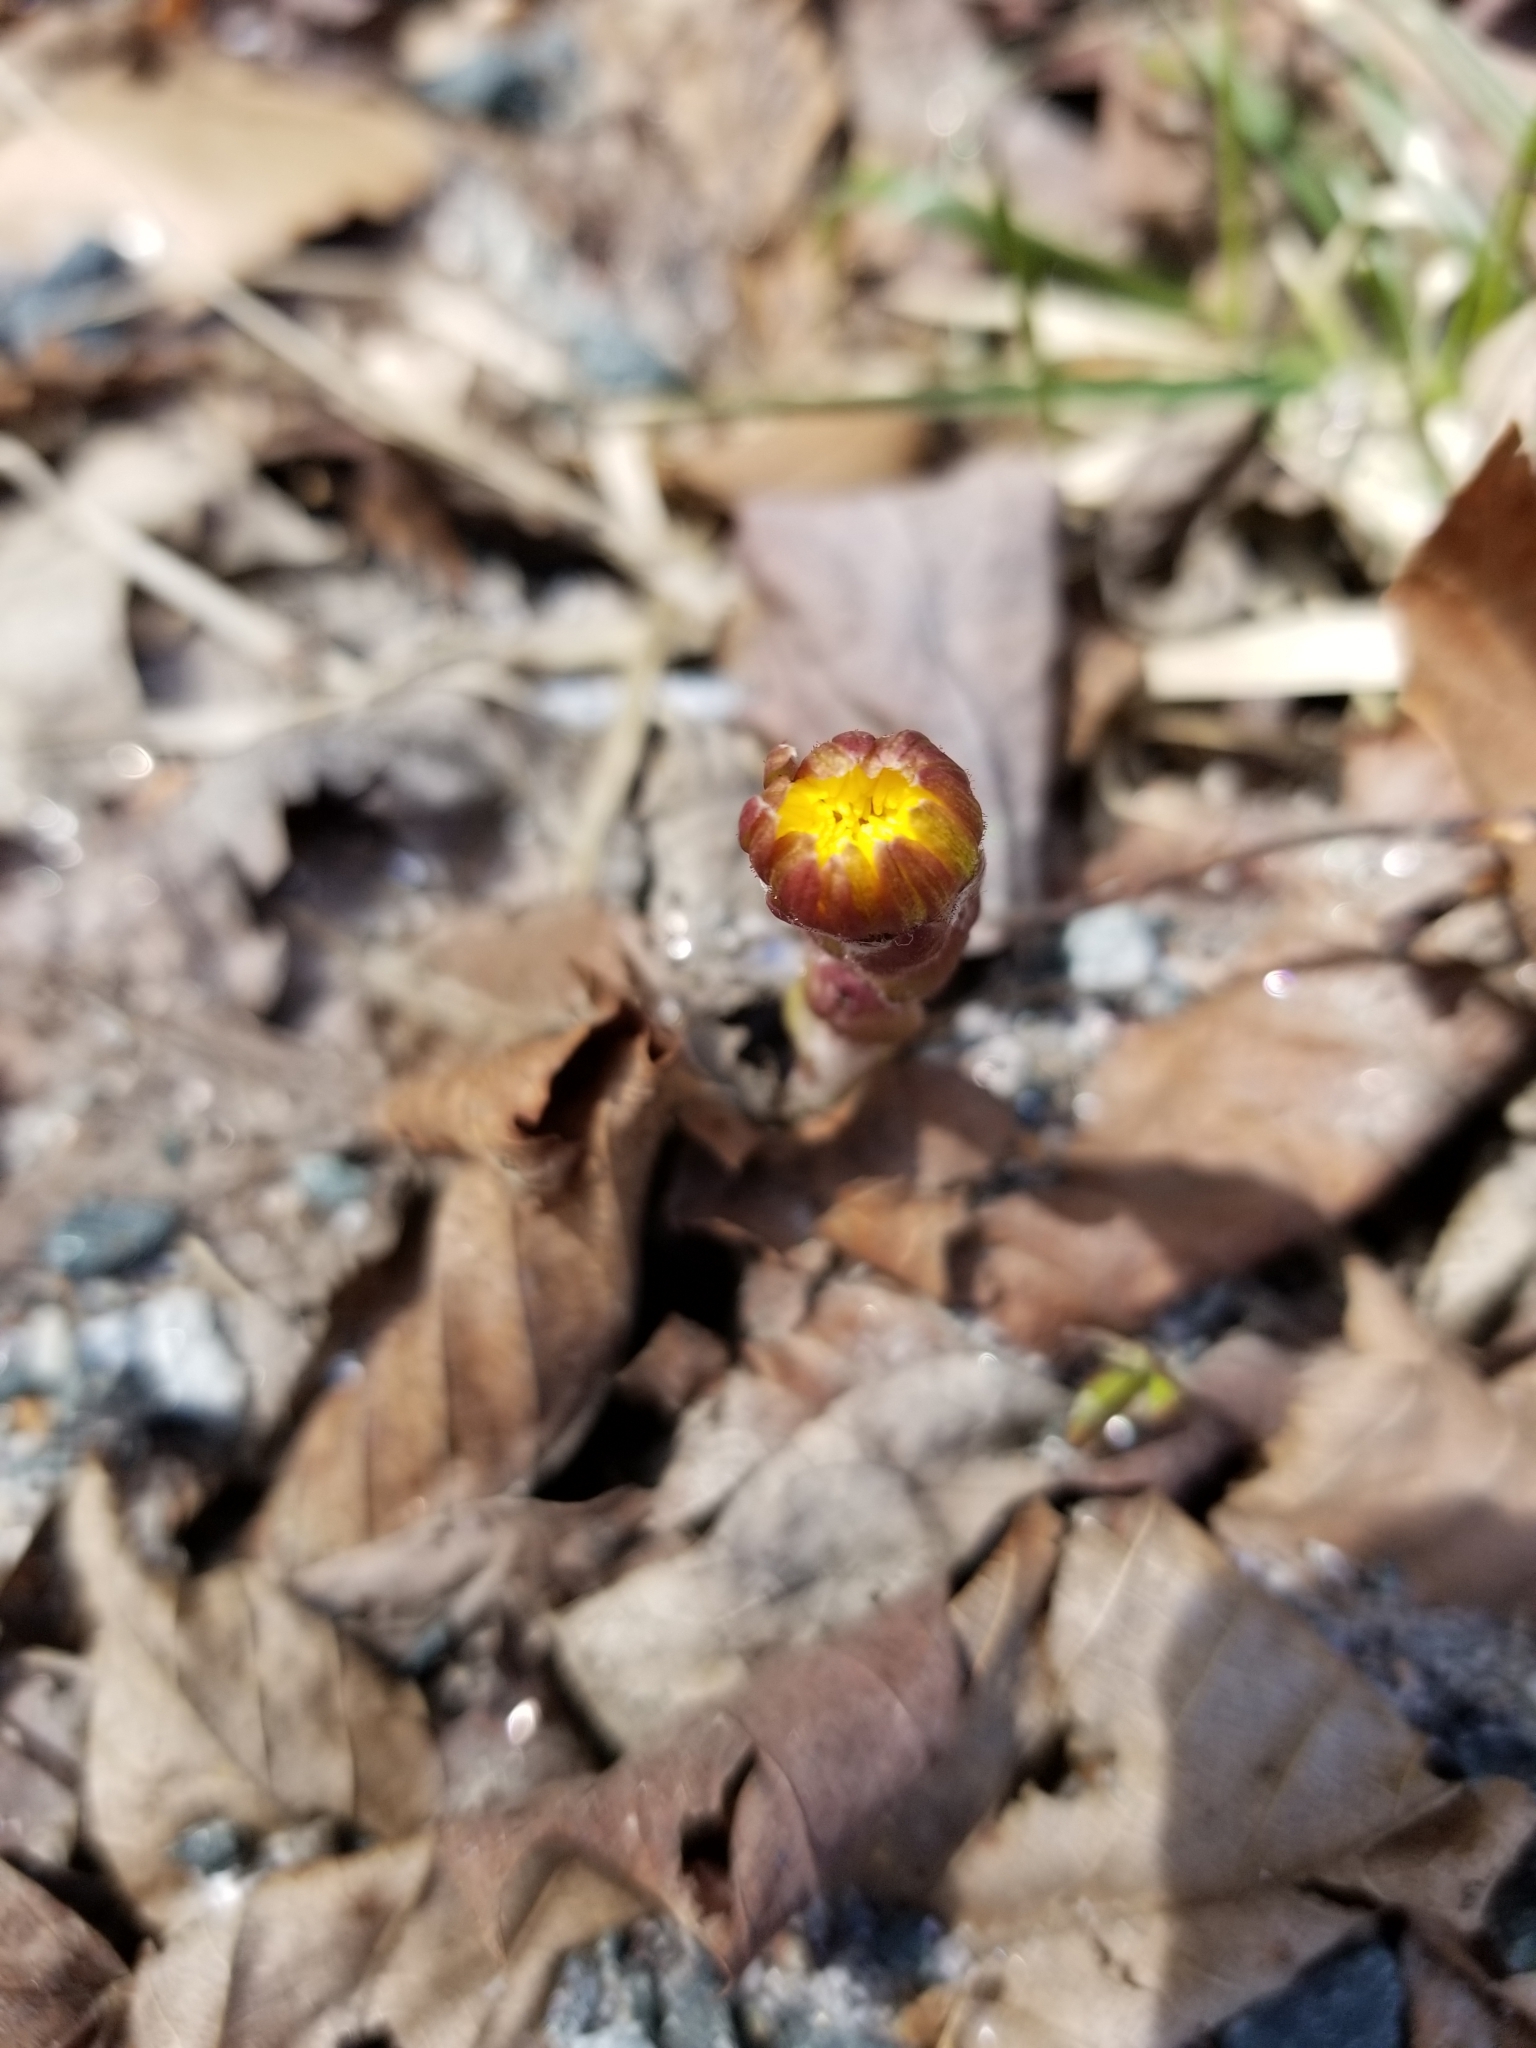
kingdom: Plantae
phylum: Tracheophyta
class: Magnoliopsida
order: Asterales
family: Asteraceae
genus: Tussilago
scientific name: Tussilago farfara
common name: Coltsfoot
